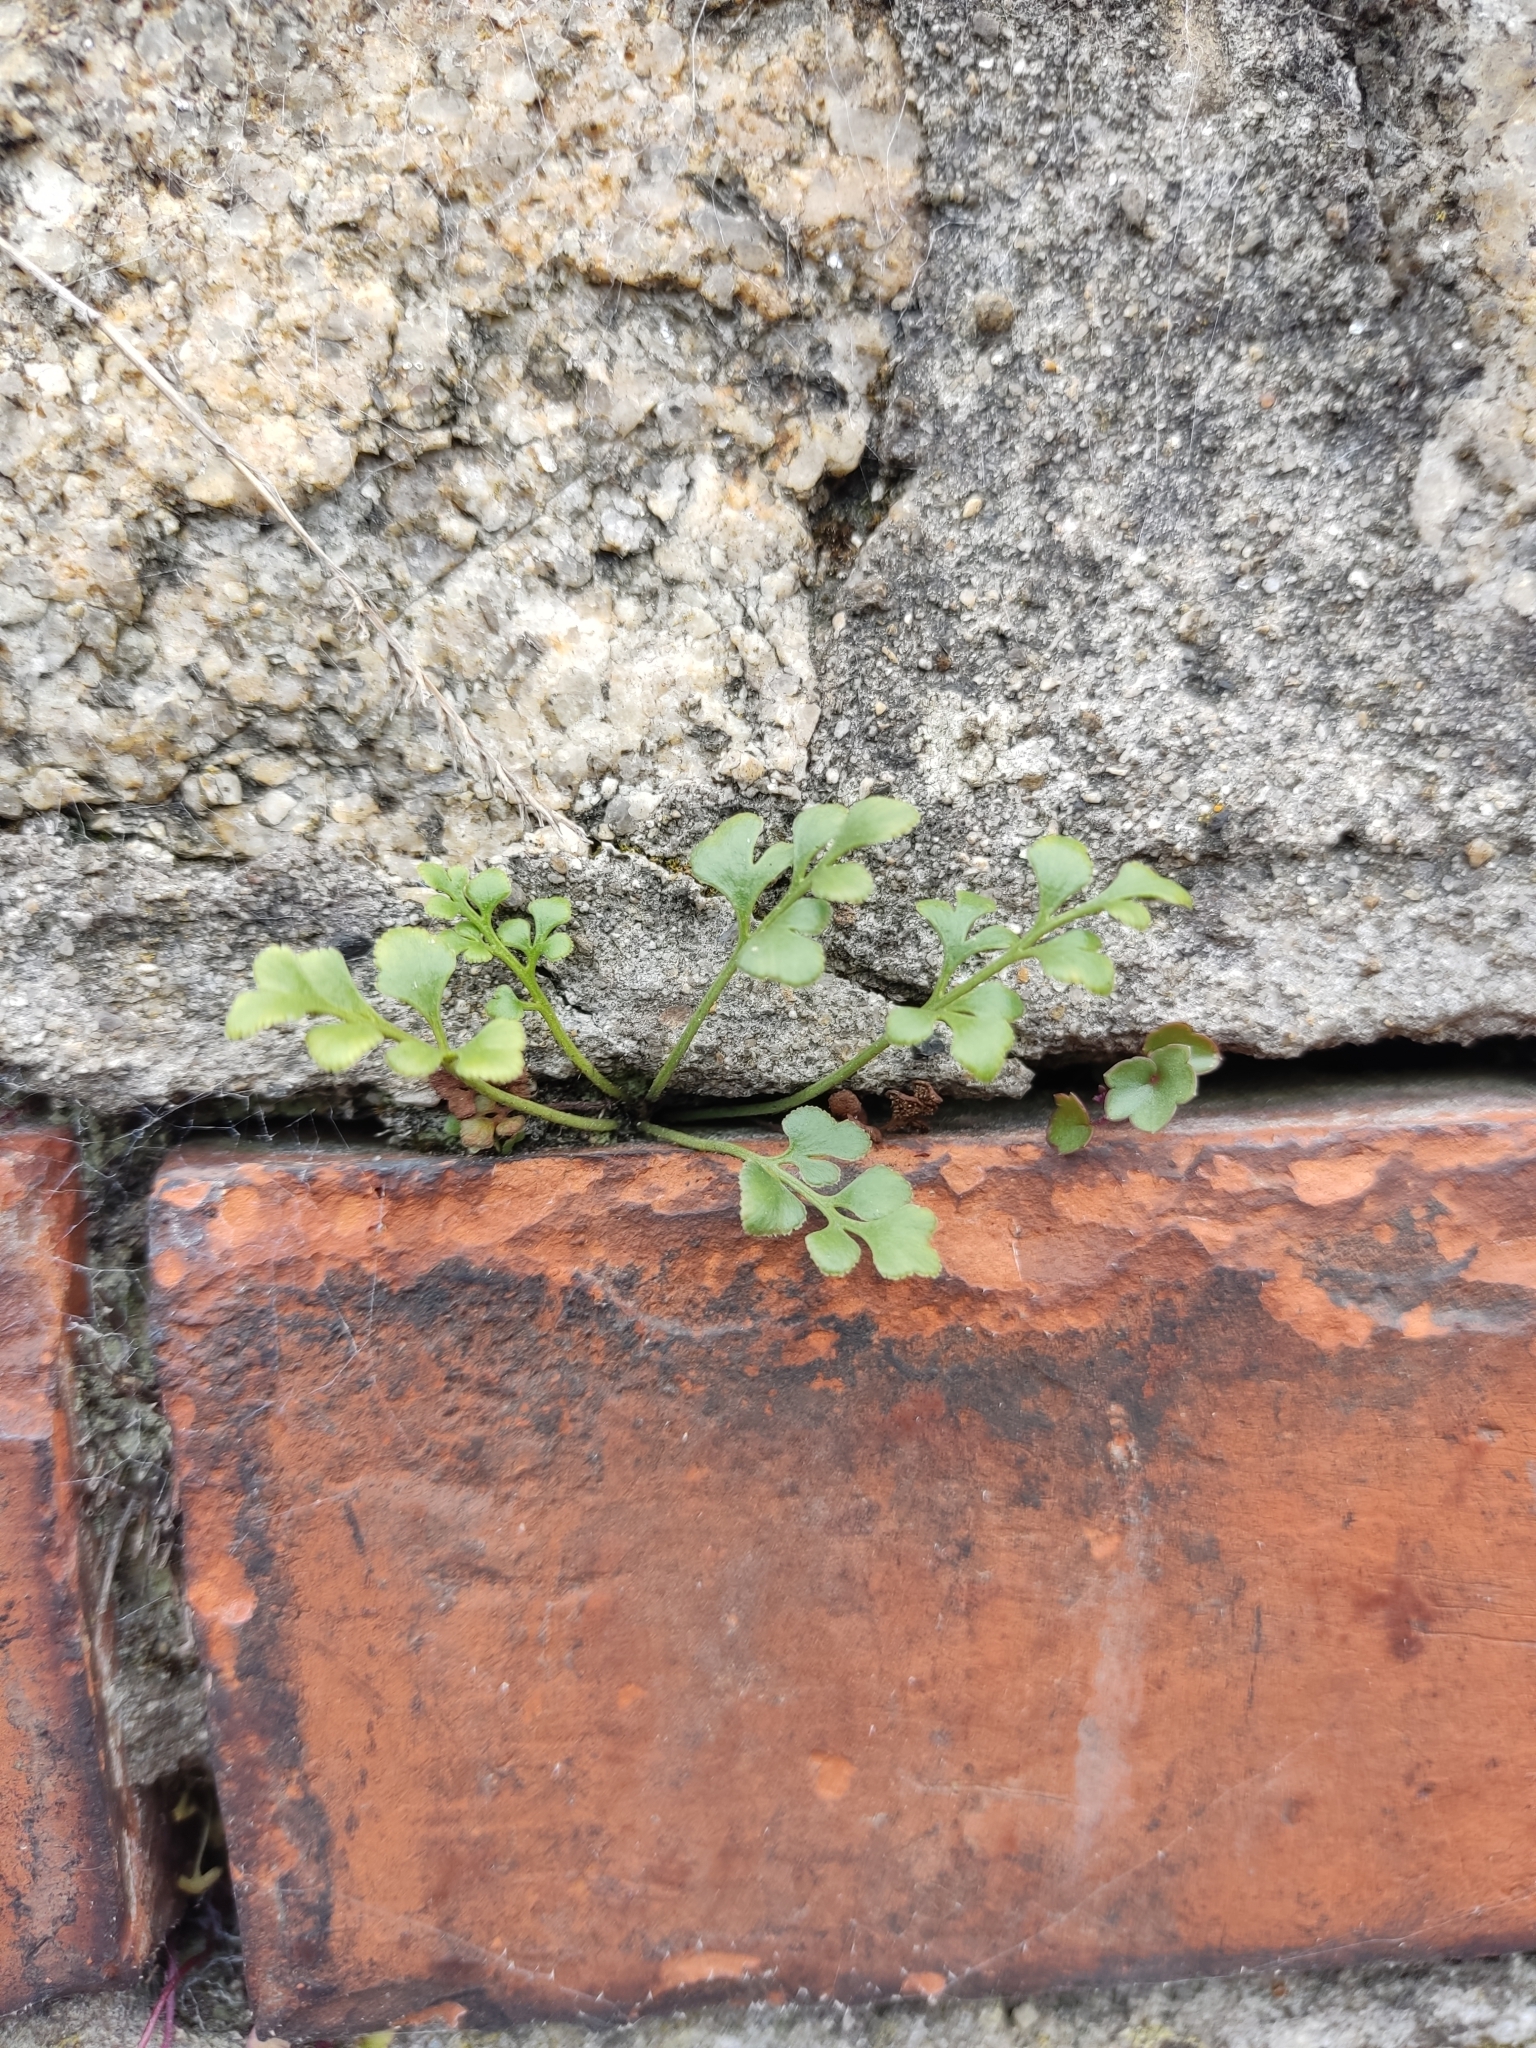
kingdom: Plantae
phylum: Tracheophyta
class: Polypodiopsida
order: Polypodiales
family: Aspleniaceae
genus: Asplenium
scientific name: Asplenium ruta-muraria
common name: Wall-rue
